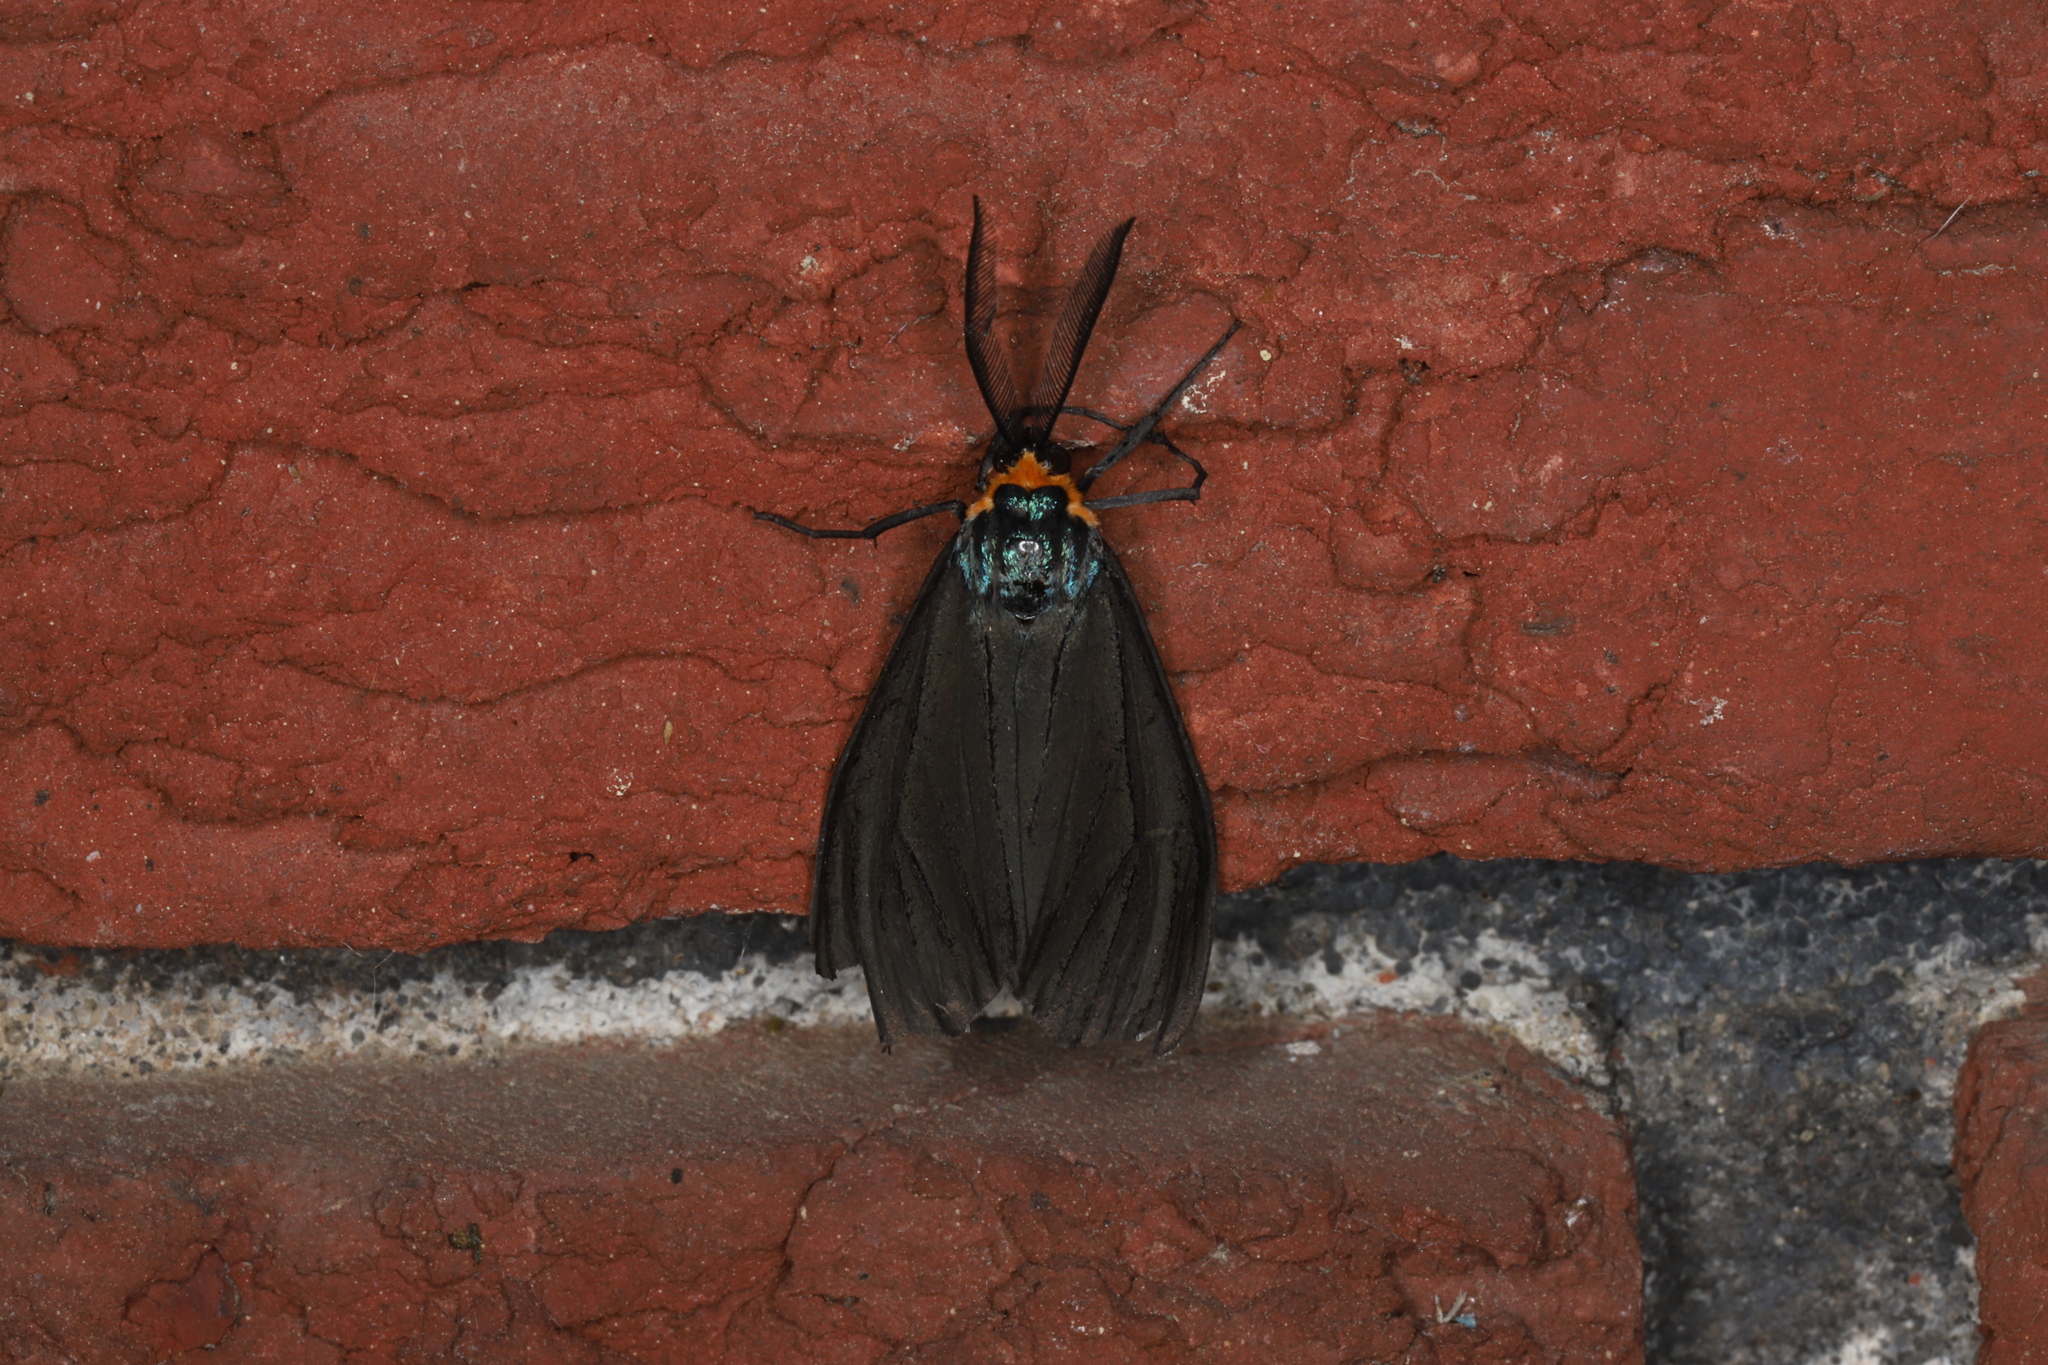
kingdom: Animalia
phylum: Arthropoda
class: Insecta
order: Lepidoptera
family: Erebidae
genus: Ctenucha
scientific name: Ctenucha virginica
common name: Virginia ctenucha moth
